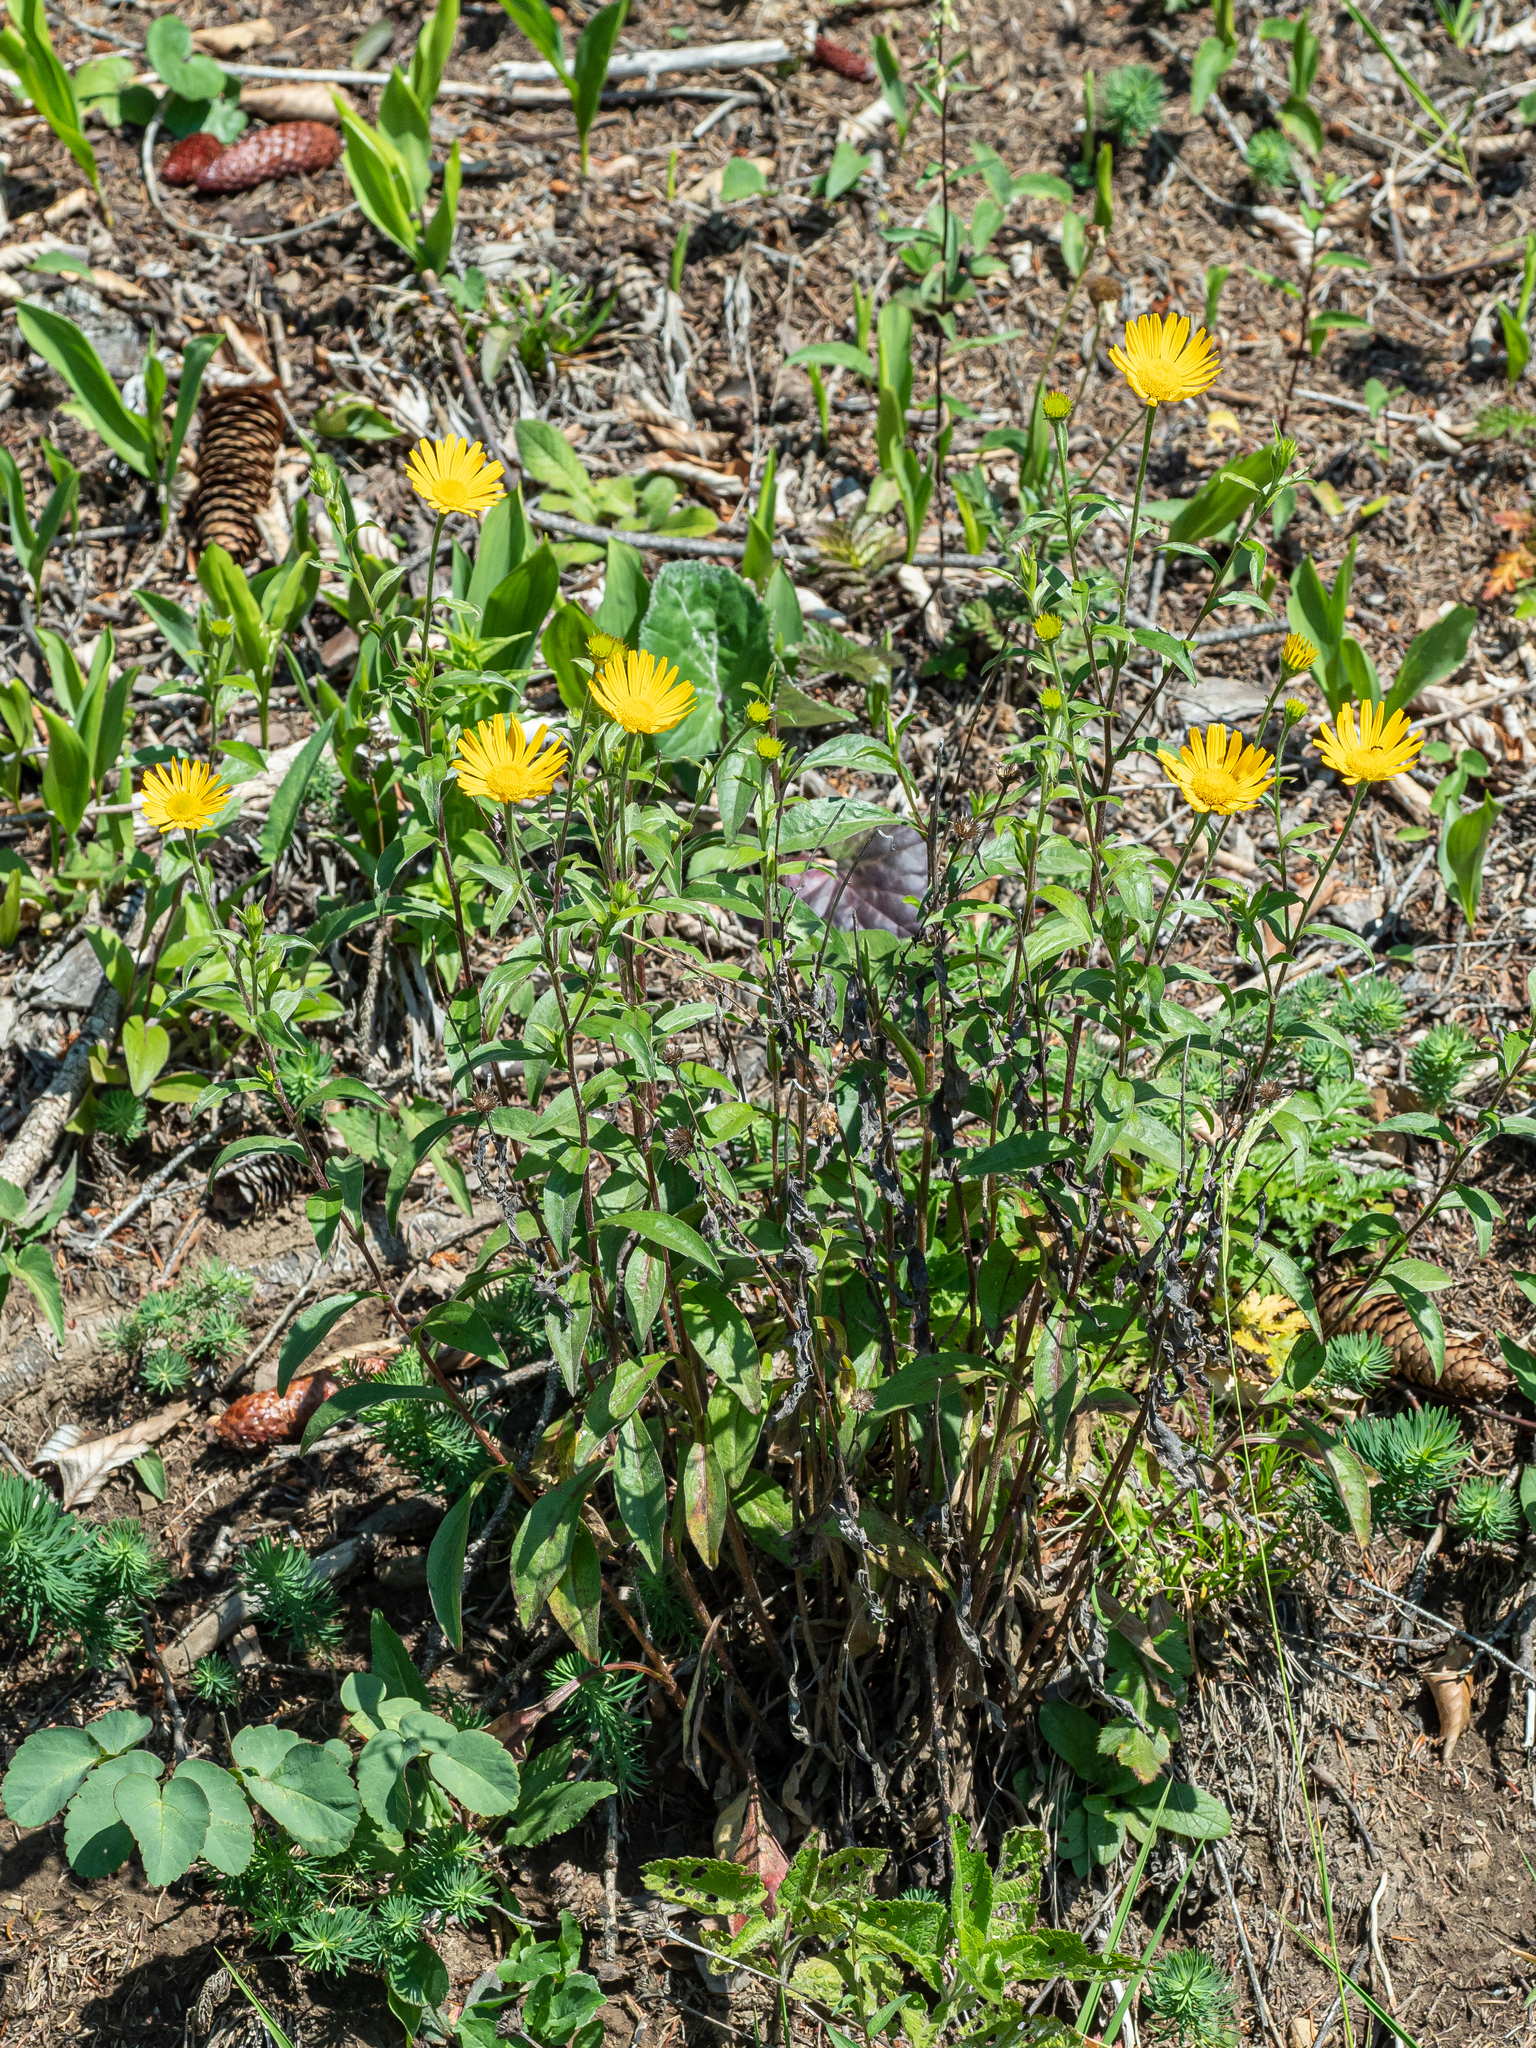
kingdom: Plantae
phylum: Tracheophyta
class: Magnoliopsida
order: Asterales
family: Asteraceae
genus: Buphthalmum
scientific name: Buphthalmum salicifolium
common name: Willow-leaved yellow-oxeye
